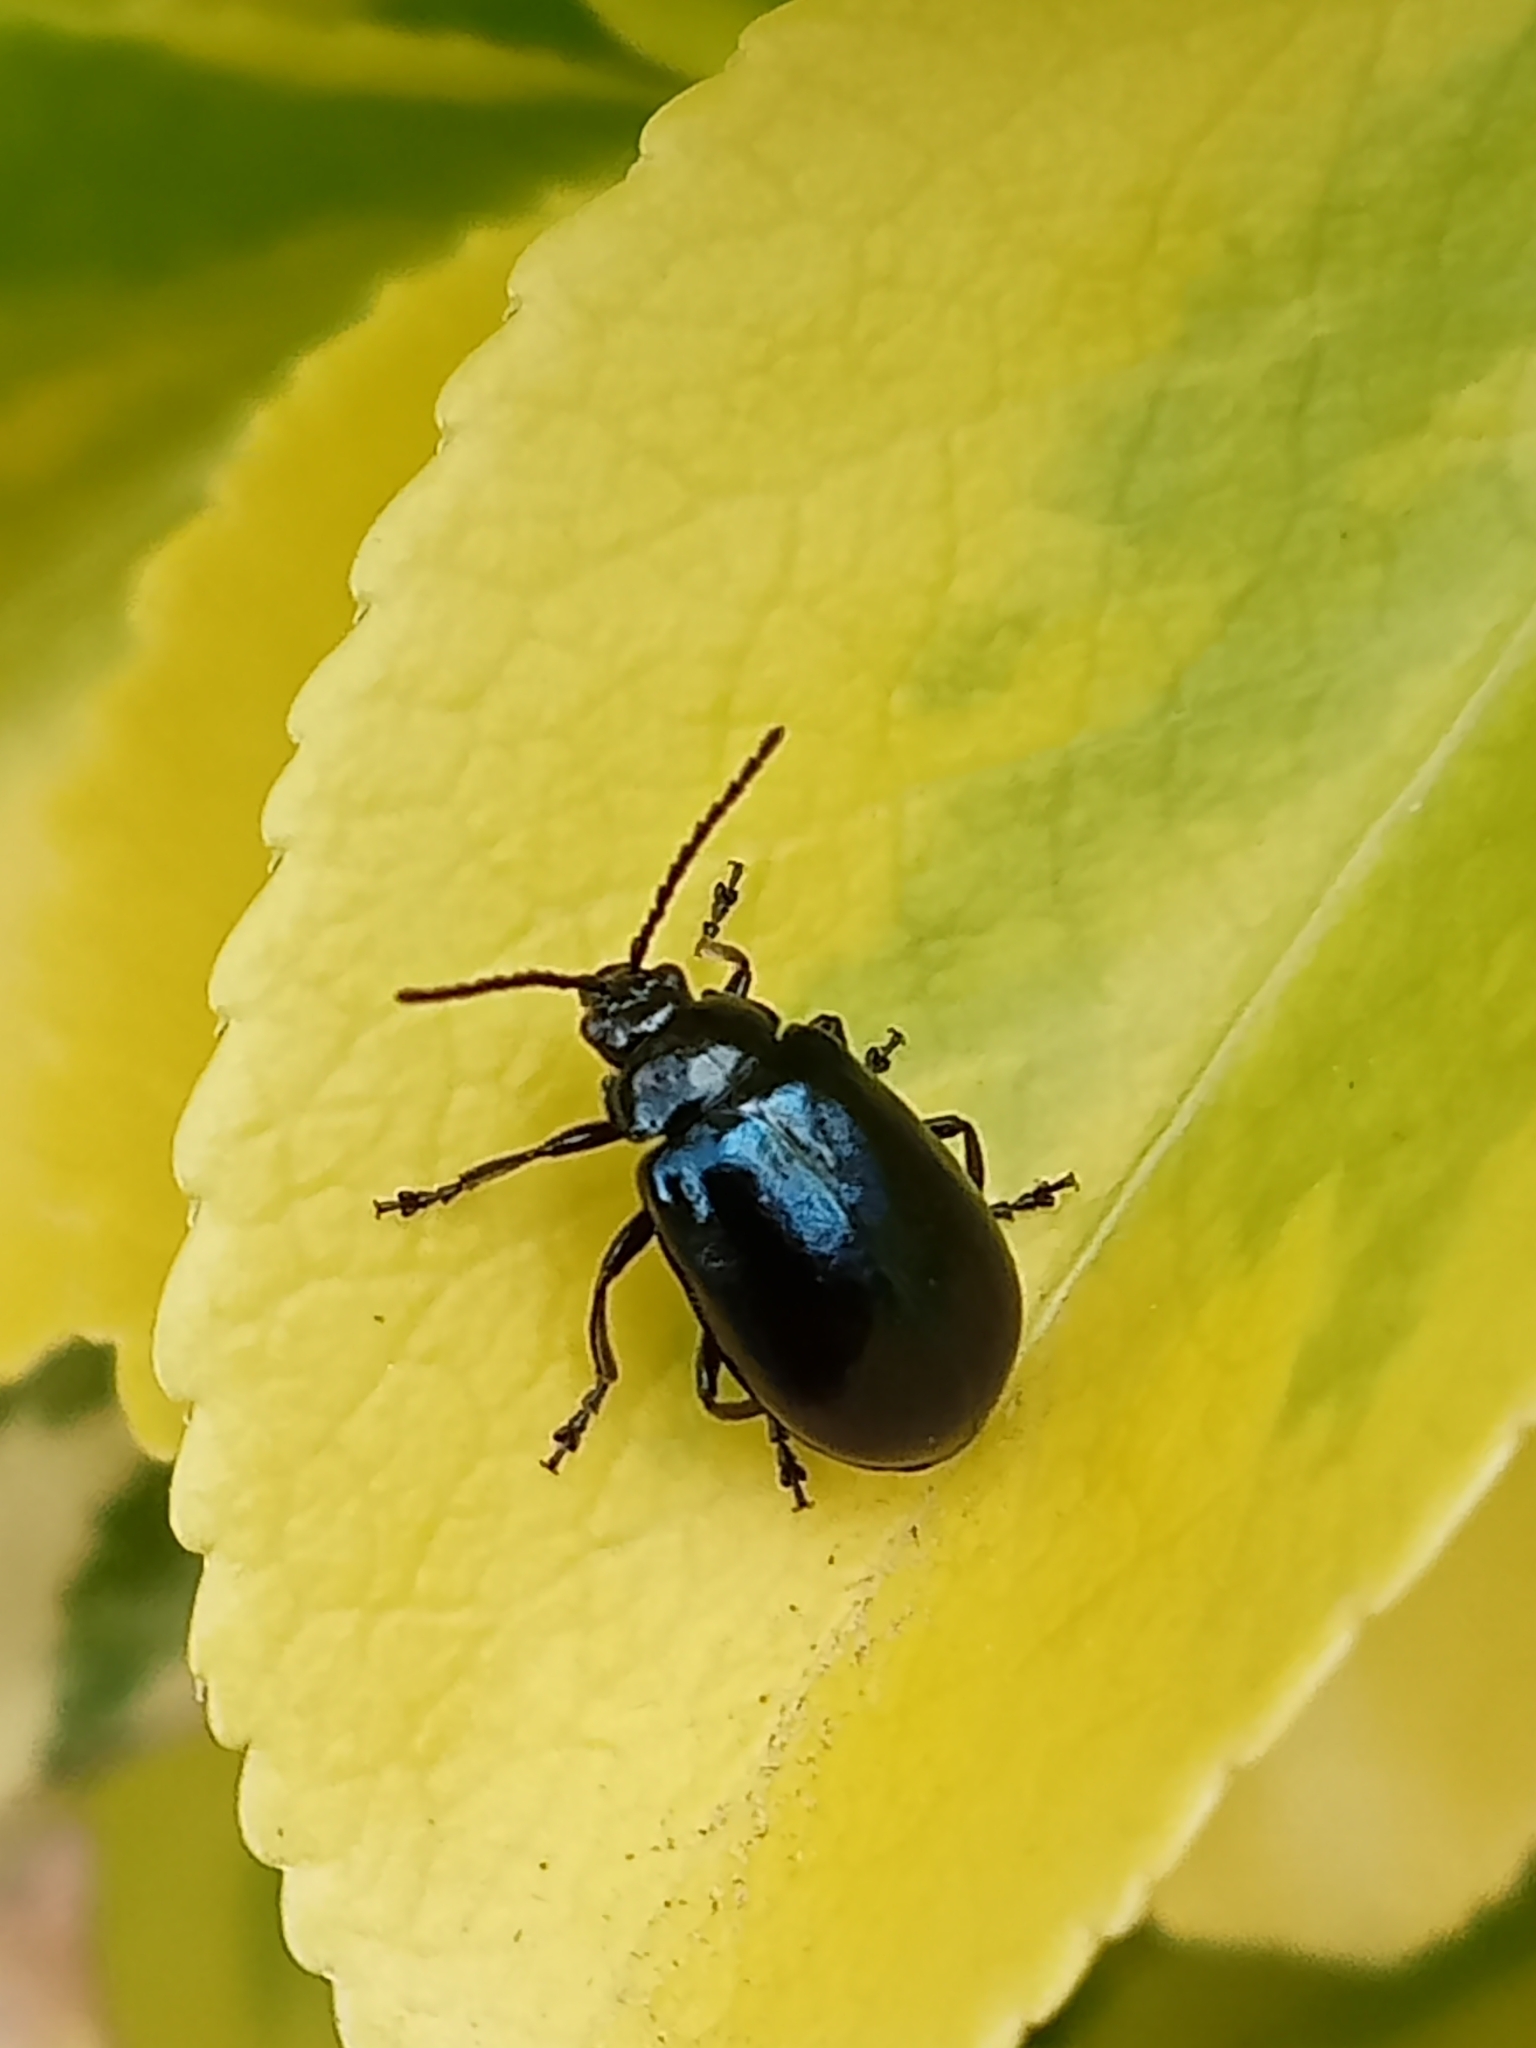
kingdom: Animalia
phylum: Arthropoda
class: Insecta
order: Coleoptera
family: Chrysomelidae
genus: Agelastica
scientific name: Agelastica alni
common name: Alder leaf beetle
